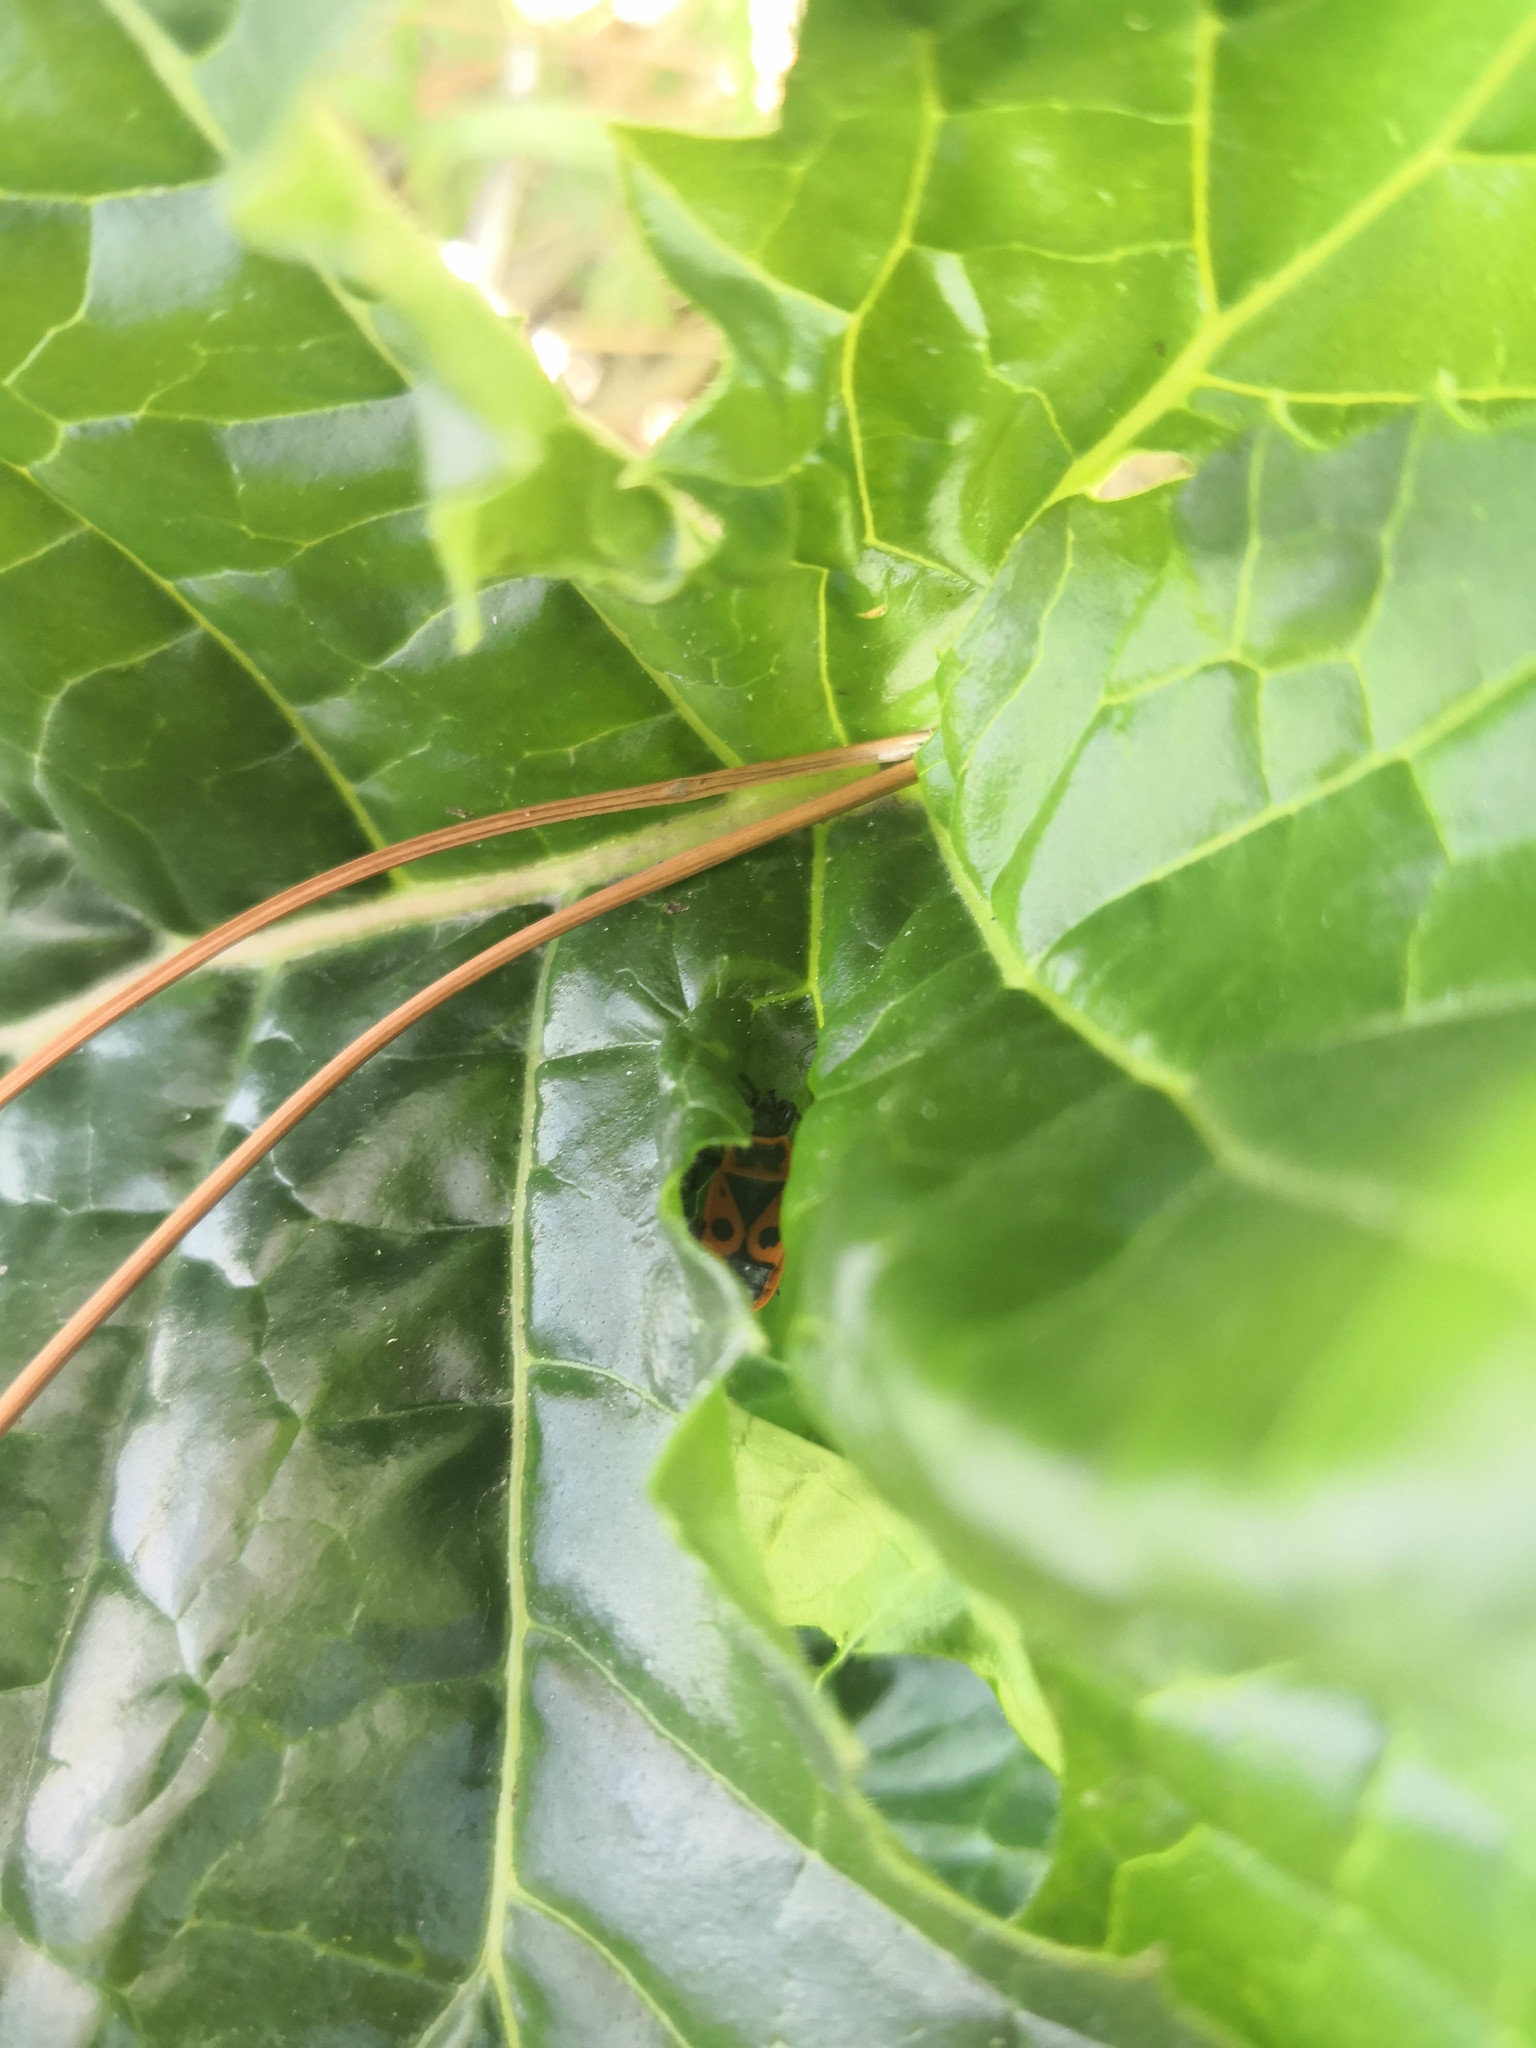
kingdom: Animalia
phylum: Arthropoda
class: Insecta
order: Hemiptera
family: Pyrrhocoridae
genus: Pyrrhocoris
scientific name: Pyrrhocoris apterus
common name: Firebug
